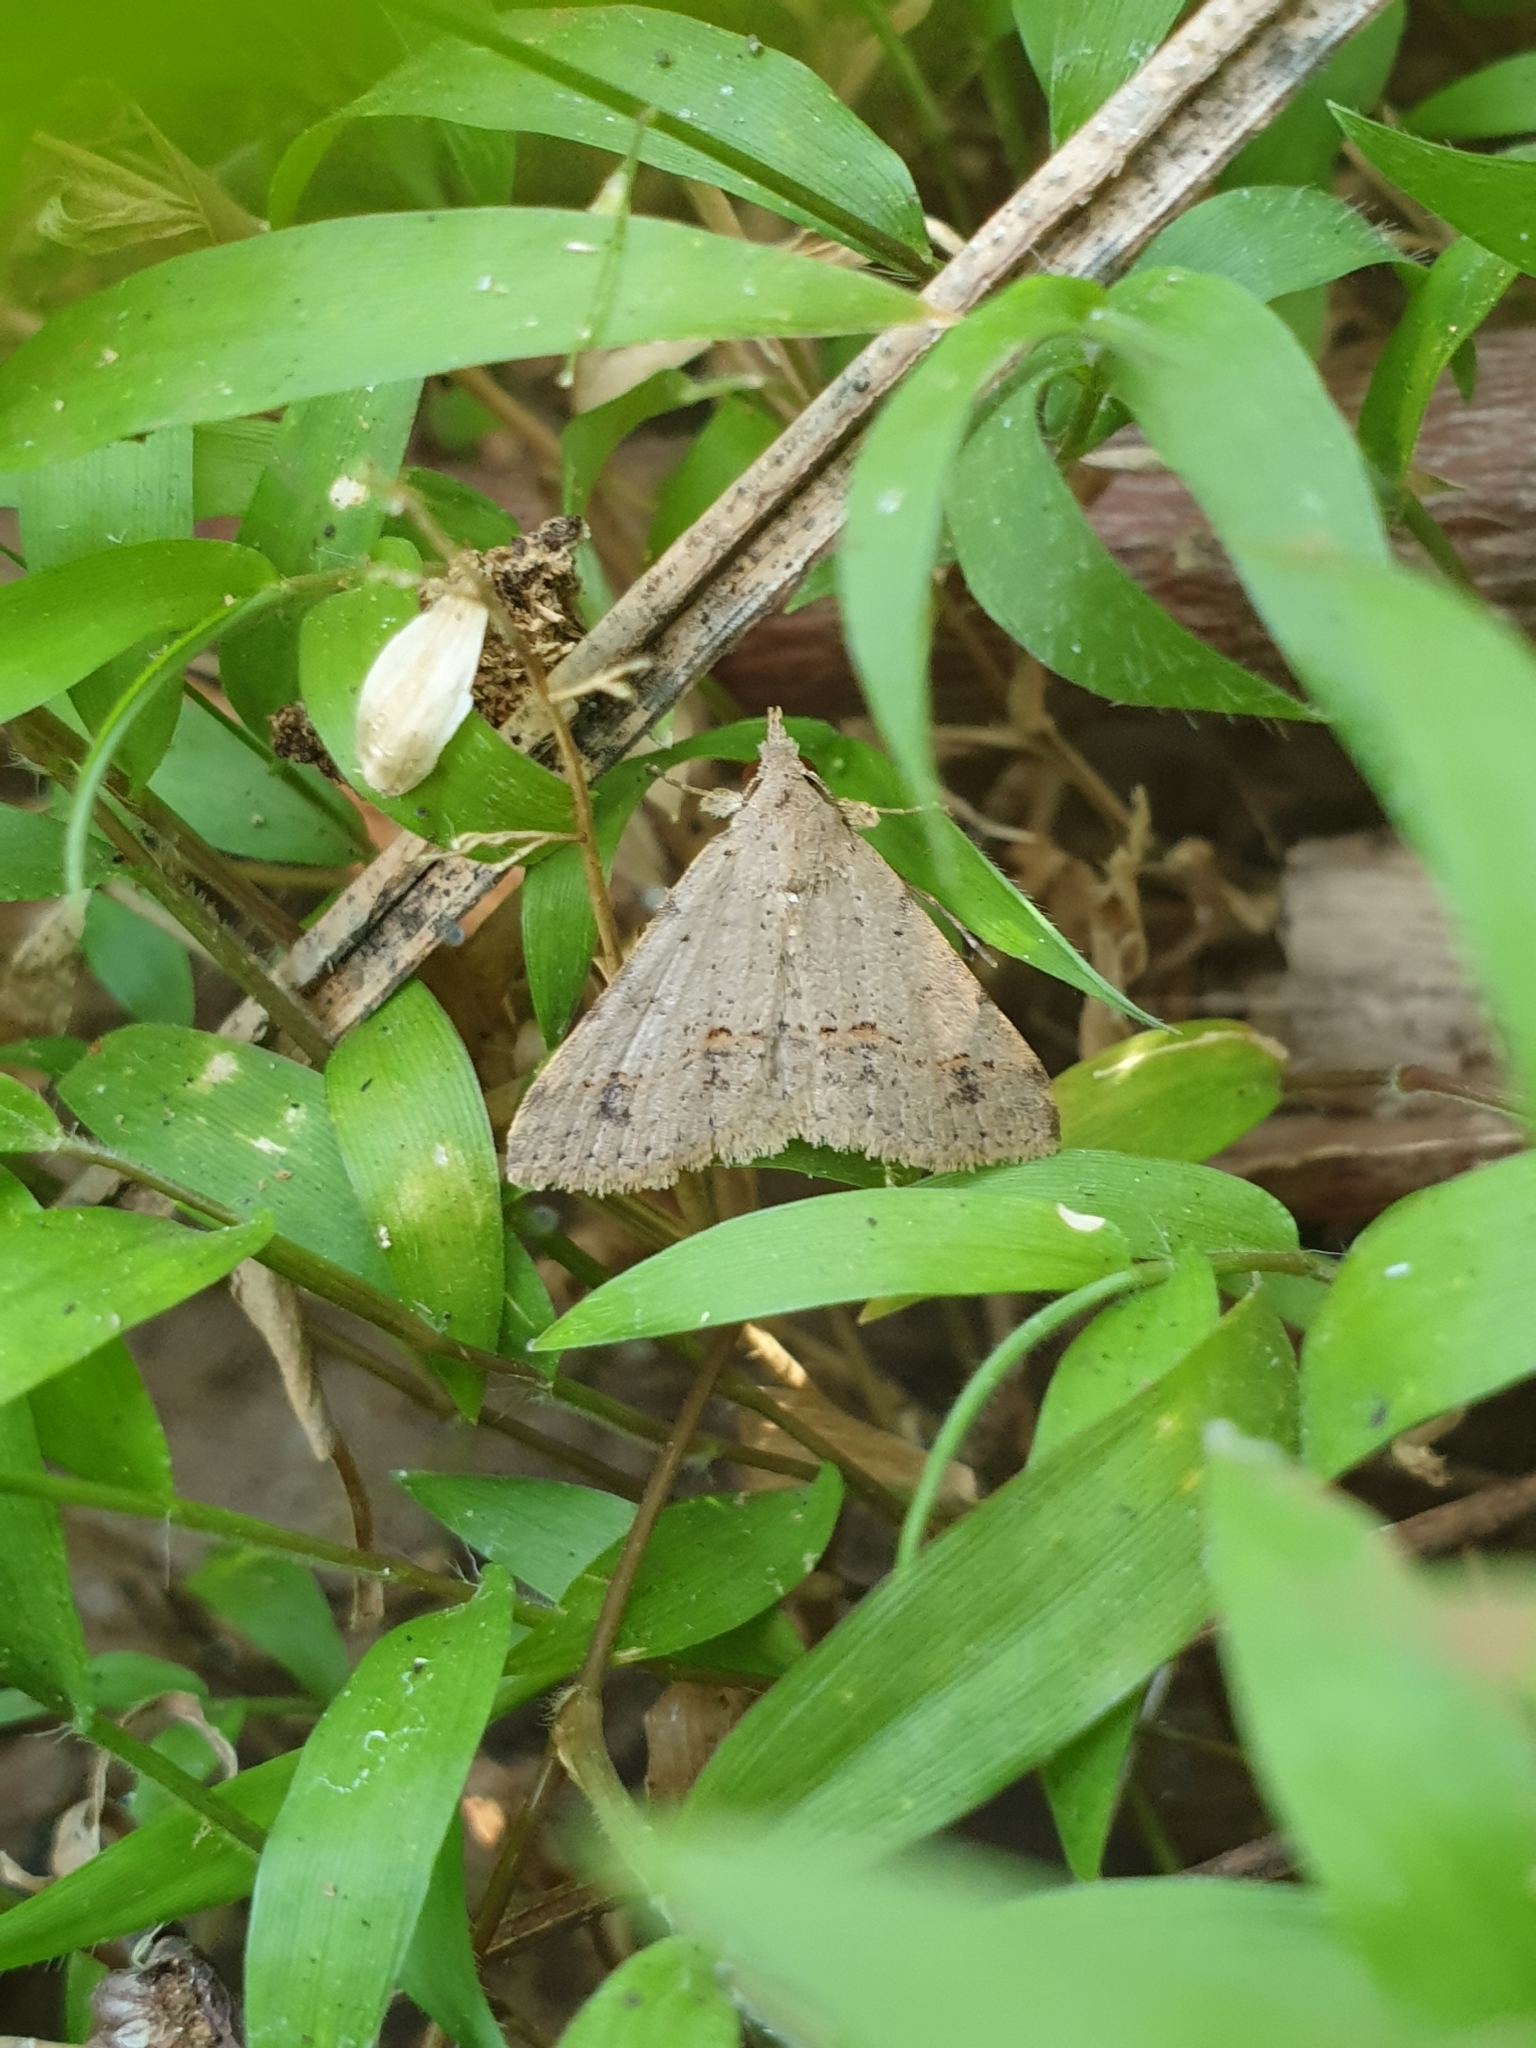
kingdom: Animalia
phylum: Arthropoda
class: Insecta
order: Lepidoptera
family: Erebidae
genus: Gesonia
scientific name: Gesonia obeditalis
